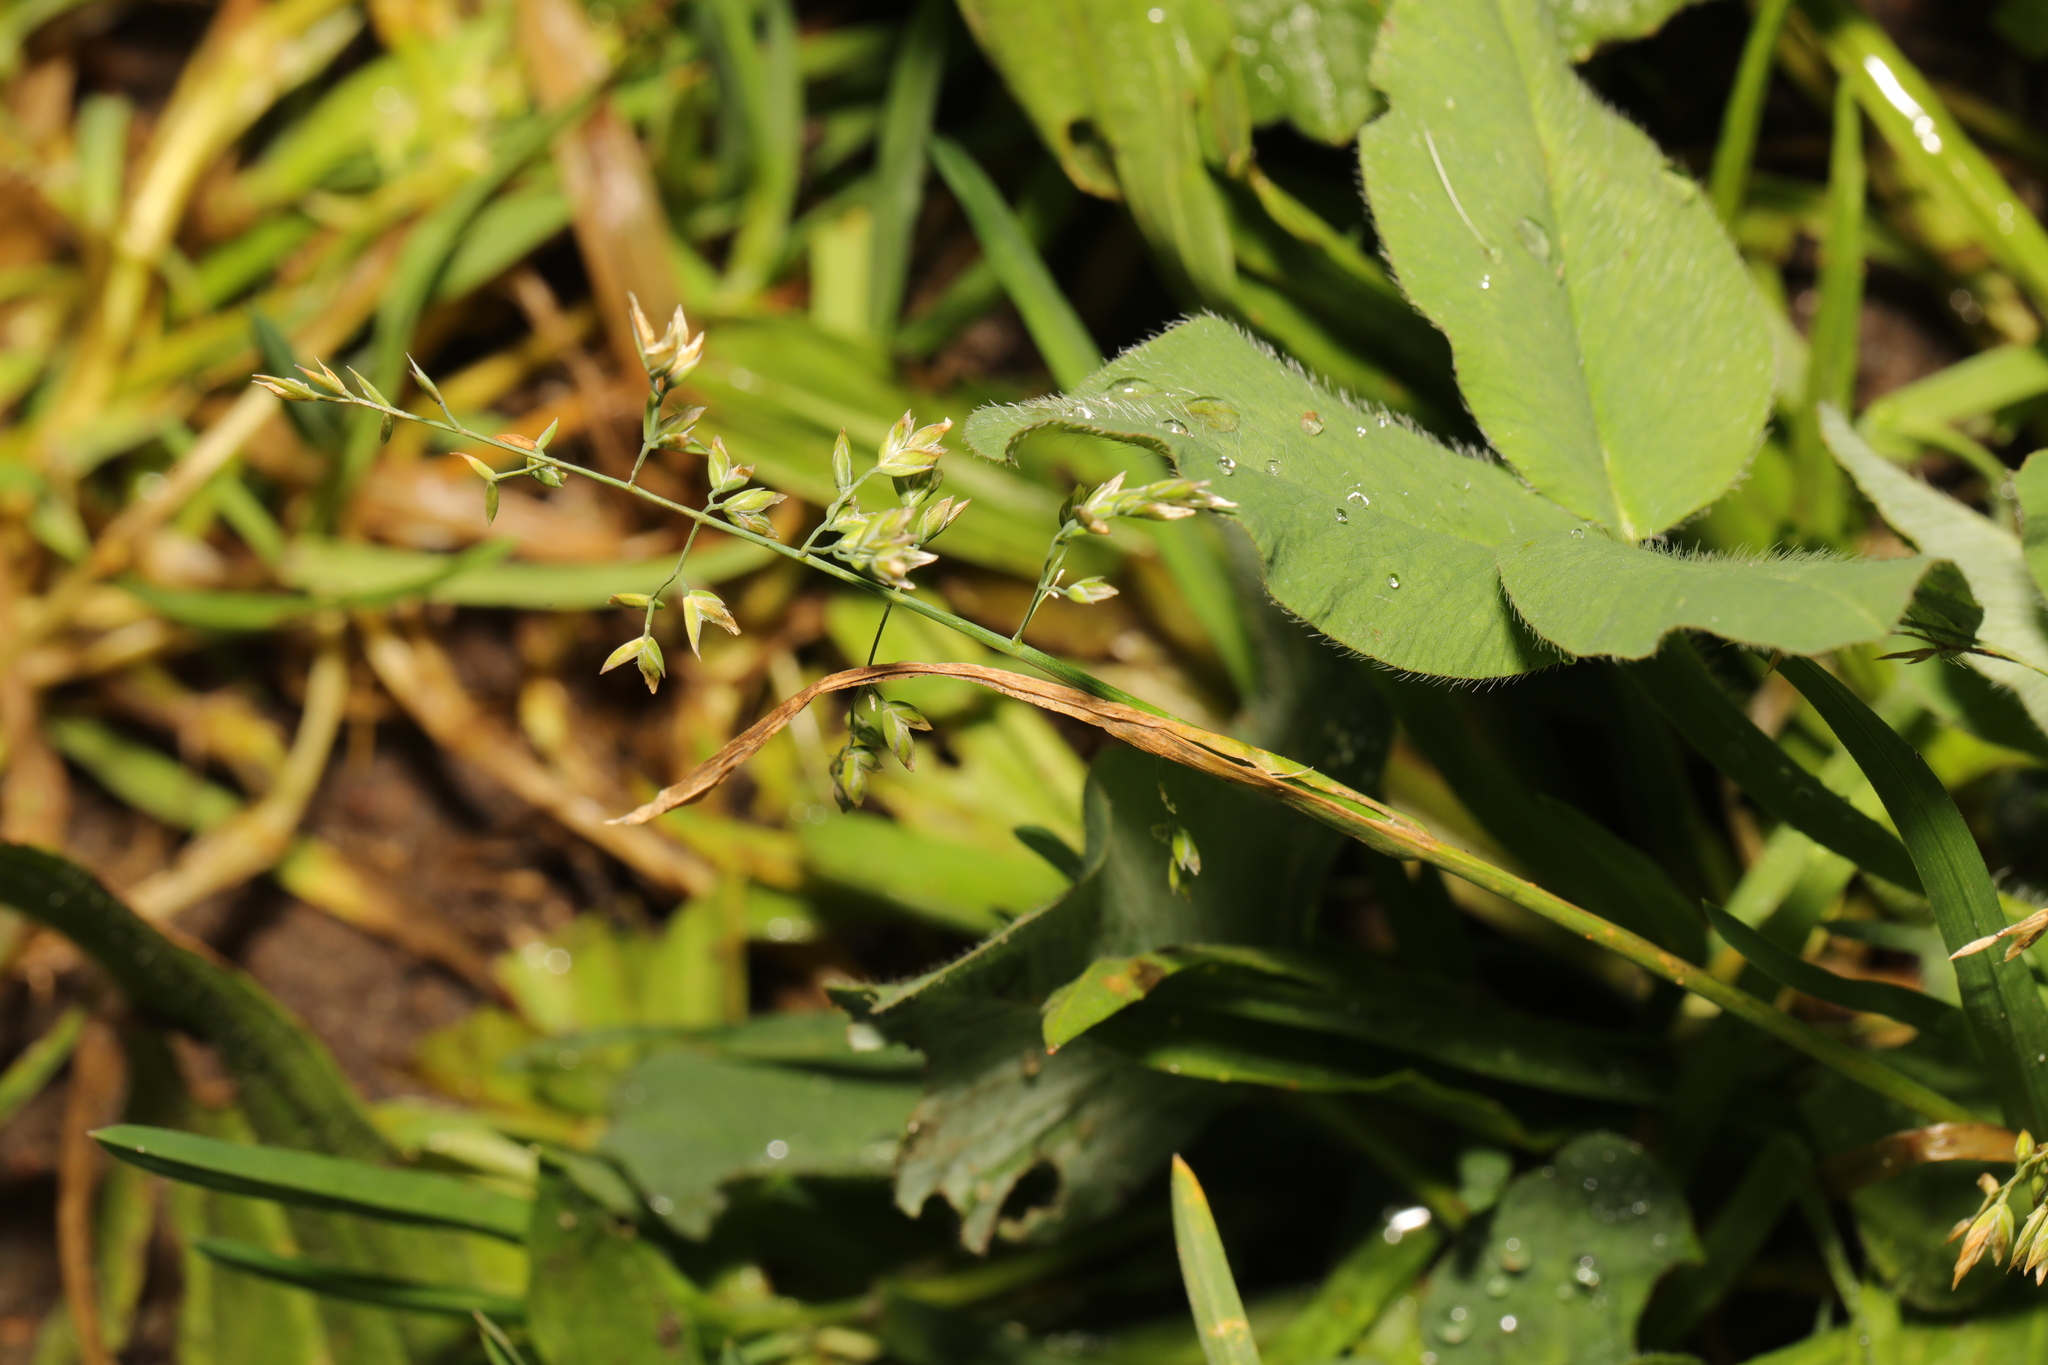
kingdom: Plantae
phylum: Tracheophyta
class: Liliopsida
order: Poales
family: Poaceae
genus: Poa
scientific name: Poa annua
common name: Annual bluegrass
